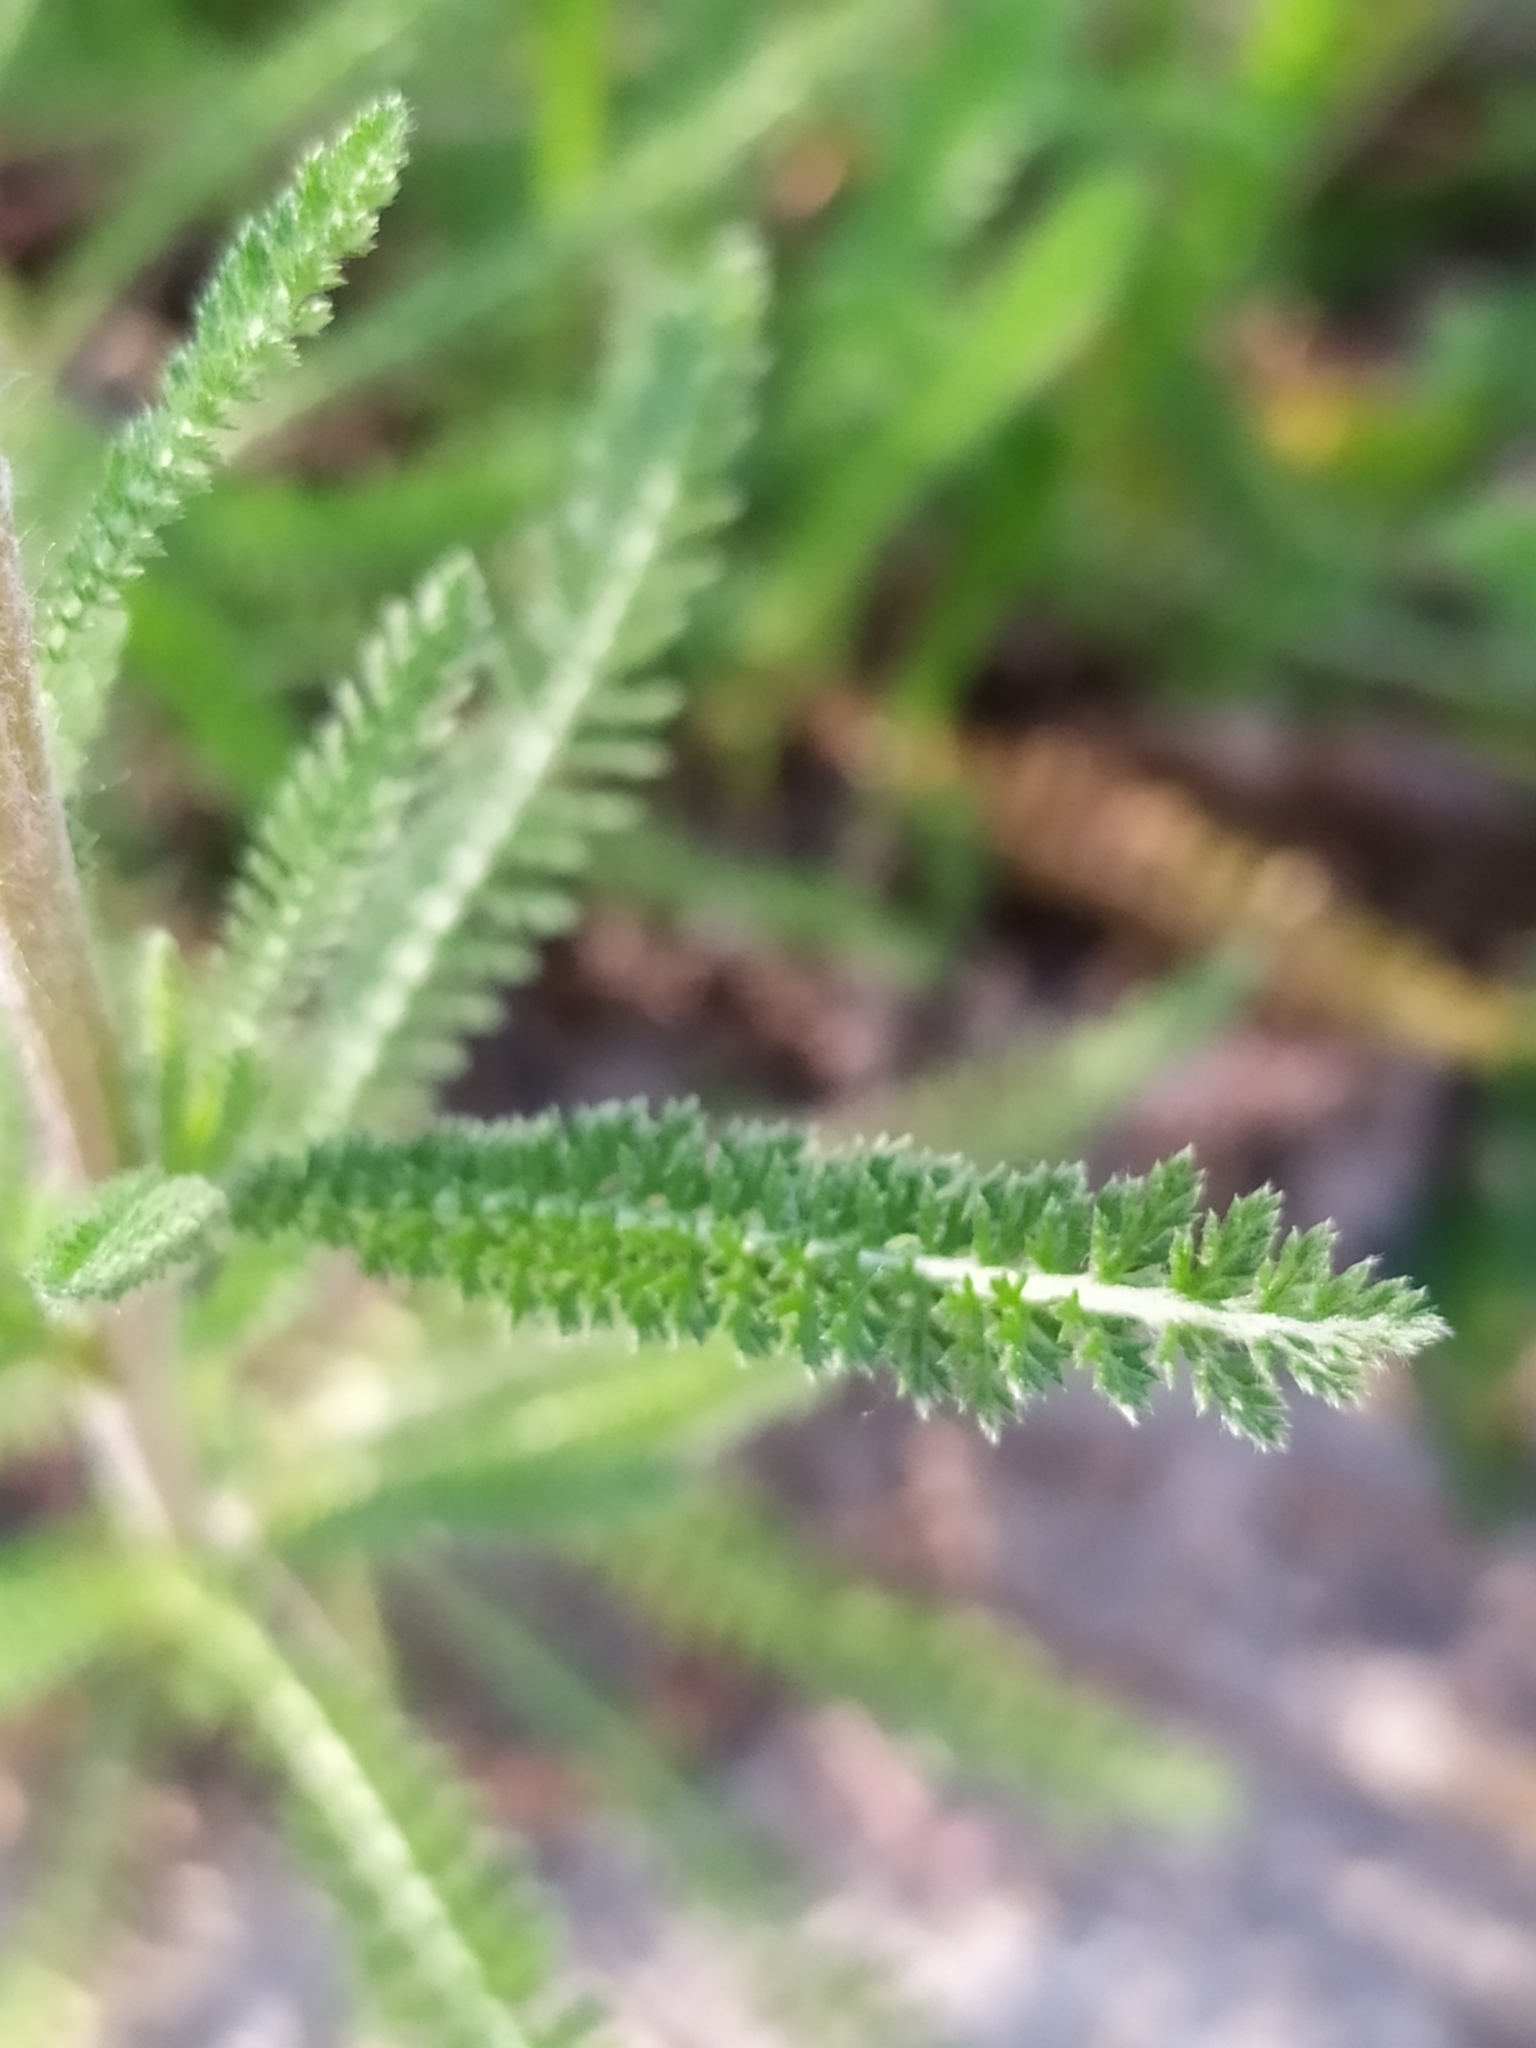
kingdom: Plantae
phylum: Tracheophyta
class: Magnoliopsida
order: Asterales
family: Asteraceae
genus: Achillea
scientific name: Achillea millefolium
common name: Yarrow
